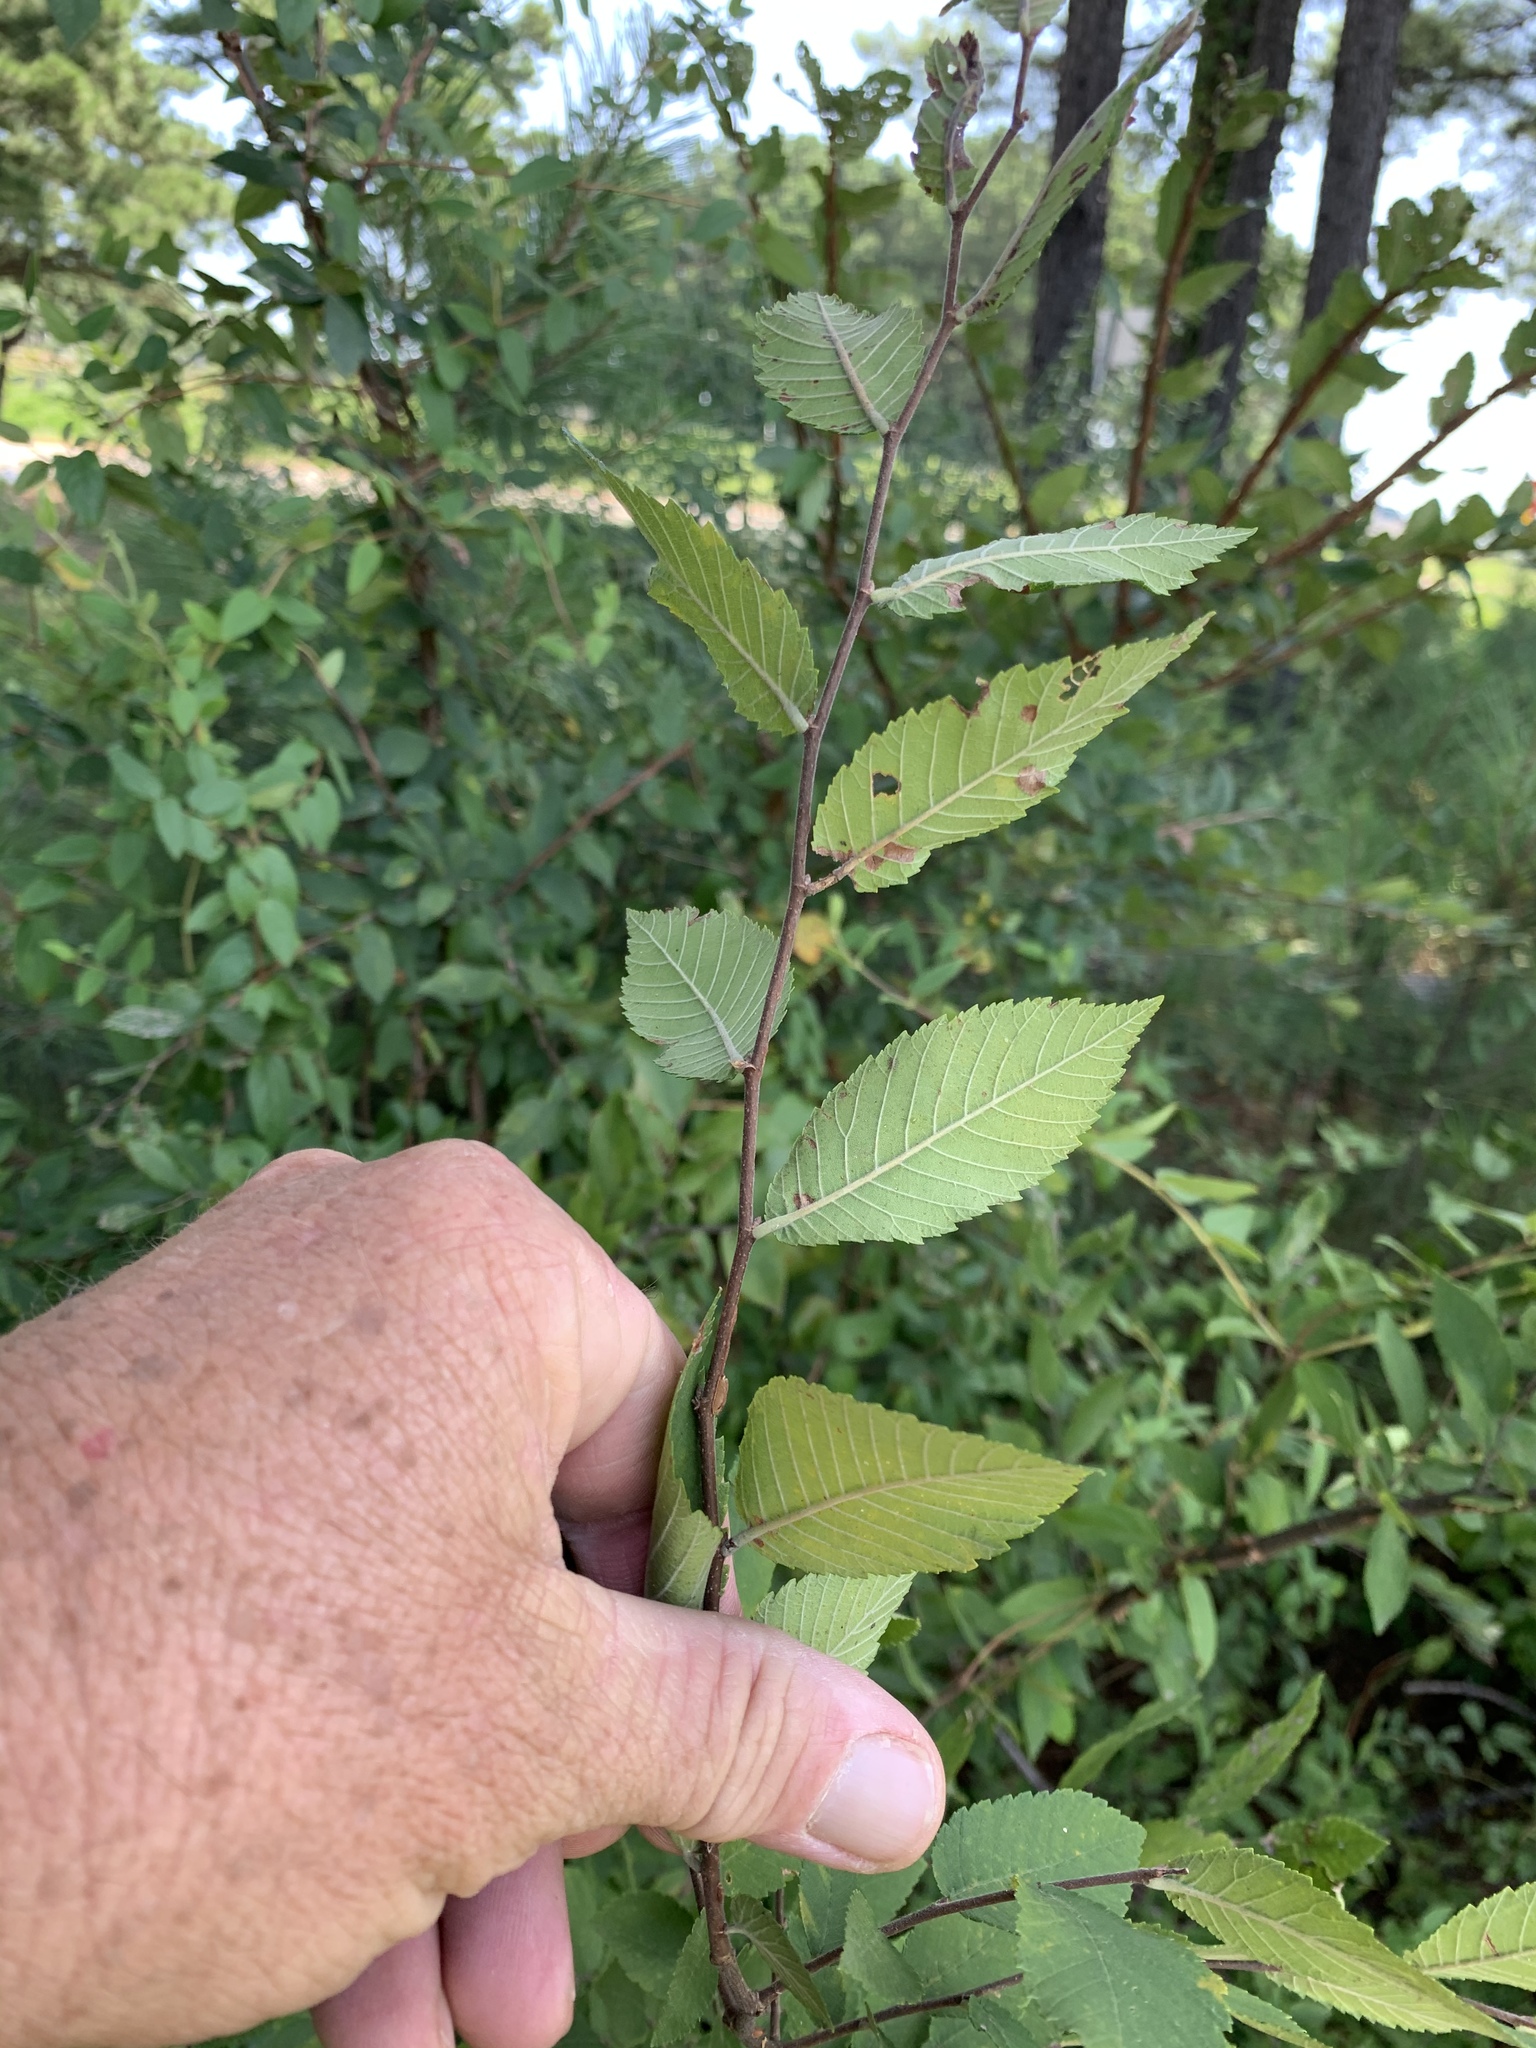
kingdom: Plantae
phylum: Tracheophyta
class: Magnoliopsida
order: Rosales
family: Ulmaceae
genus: Ulmus
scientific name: Ulmus alata
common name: Winged elm
